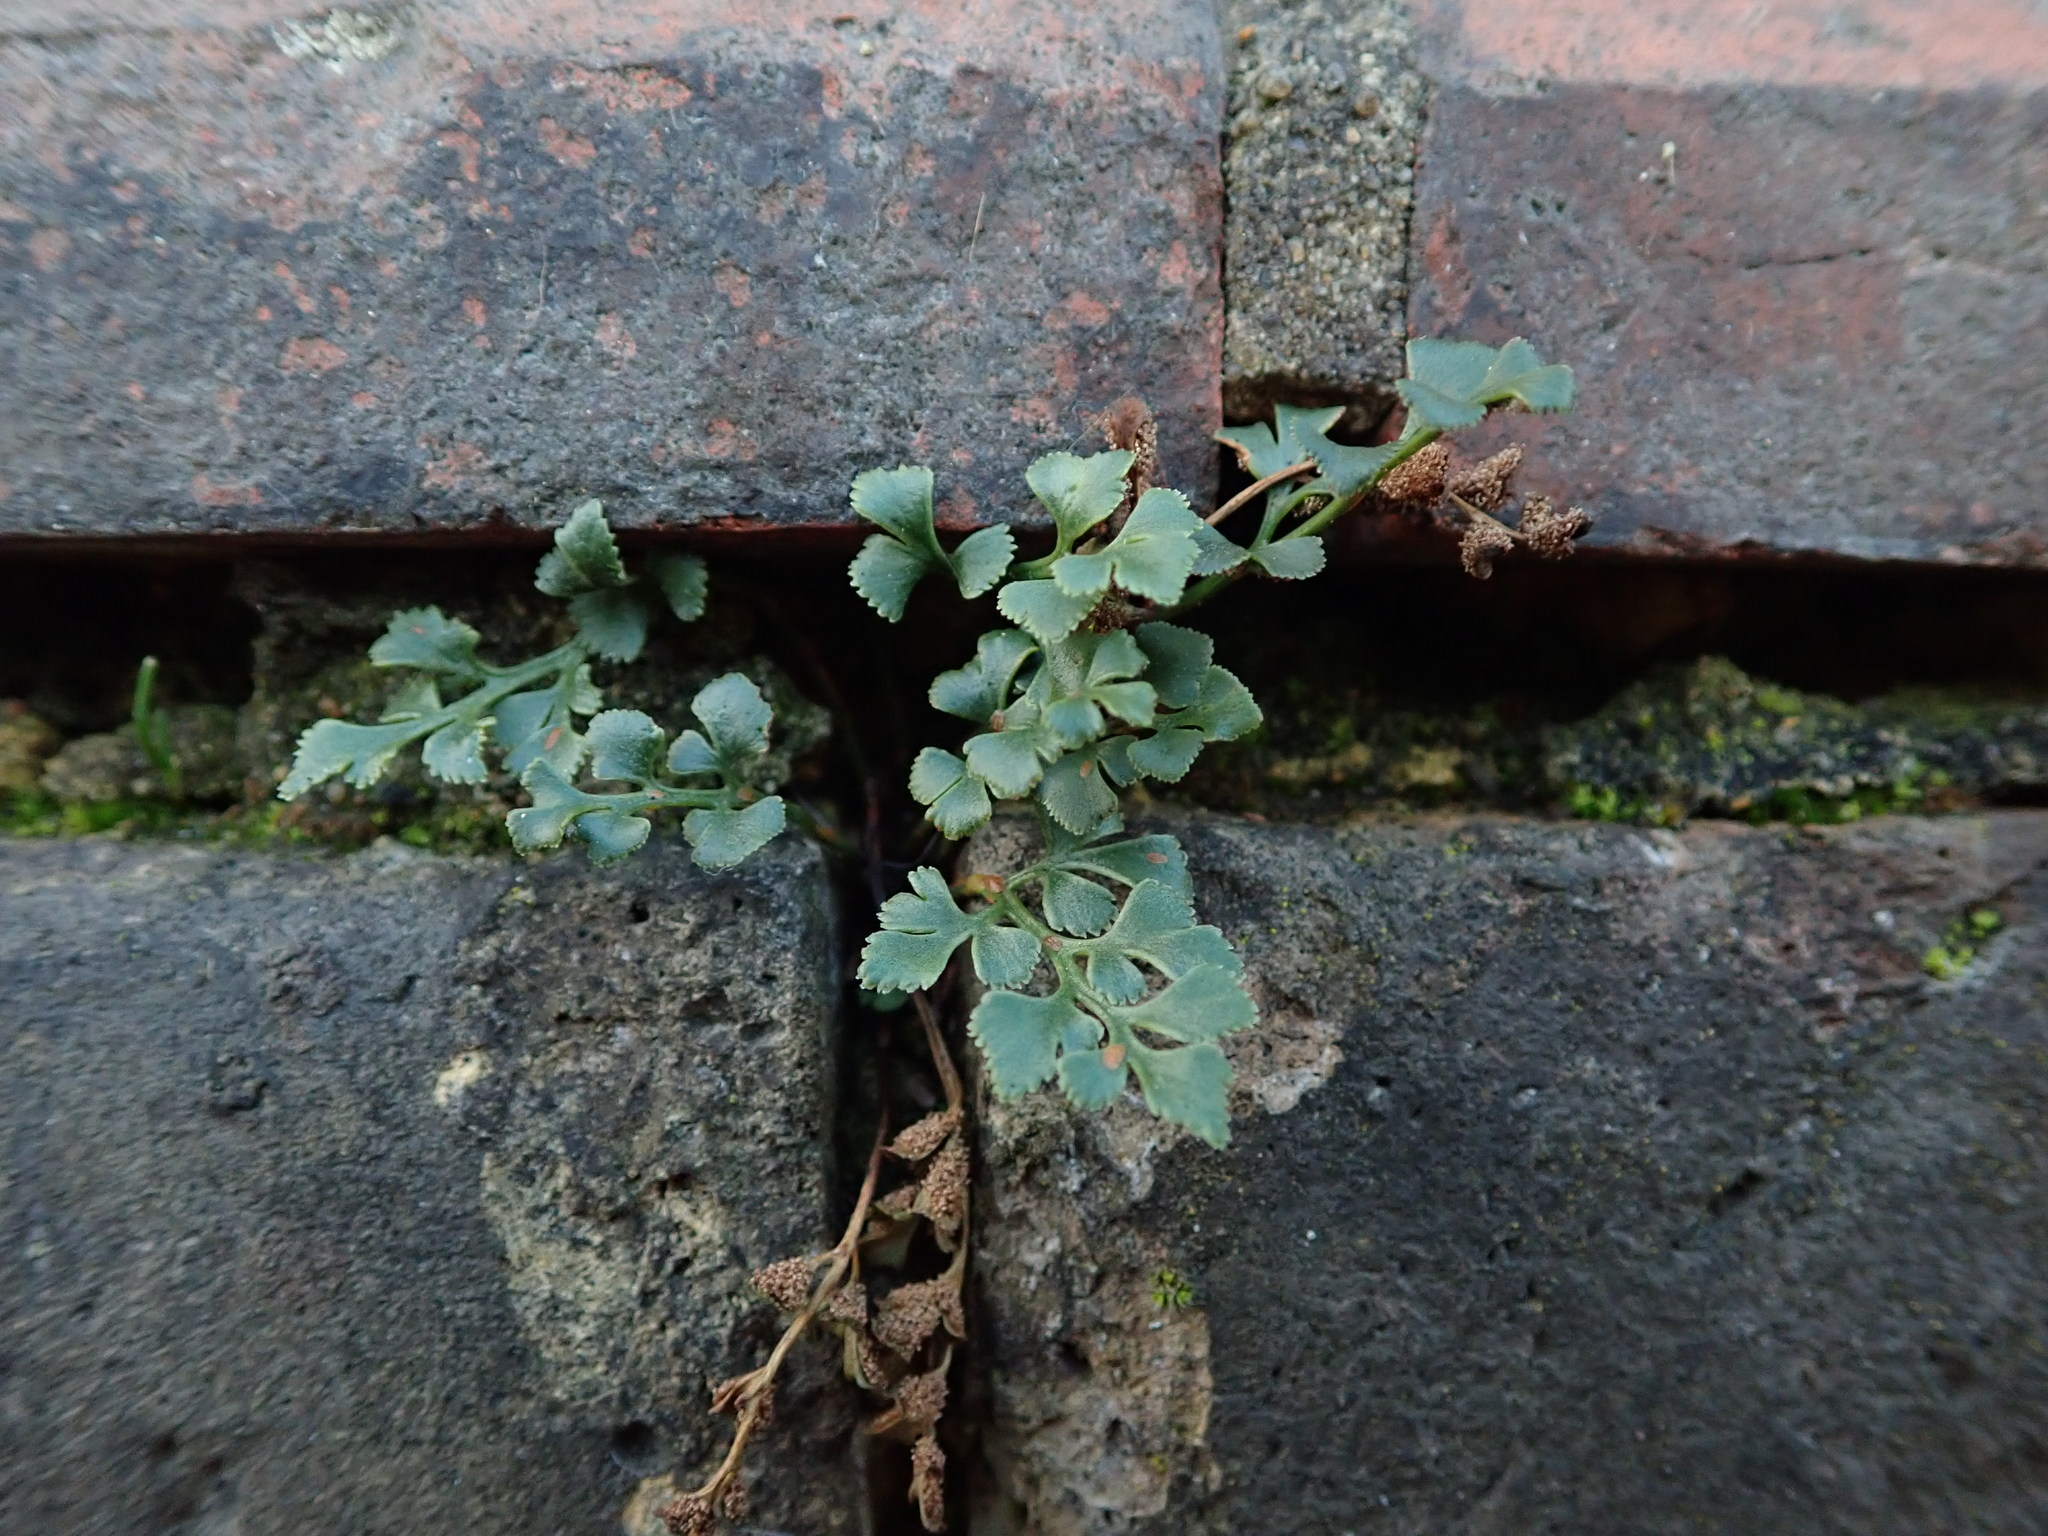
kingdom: Plantae
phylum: Tracheophyta
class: Polypodiopsida
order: Polypodiales
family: Aspleniaceae
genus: Asplenium
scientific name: Asplenium ruta-muraria
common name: Wall-rue
